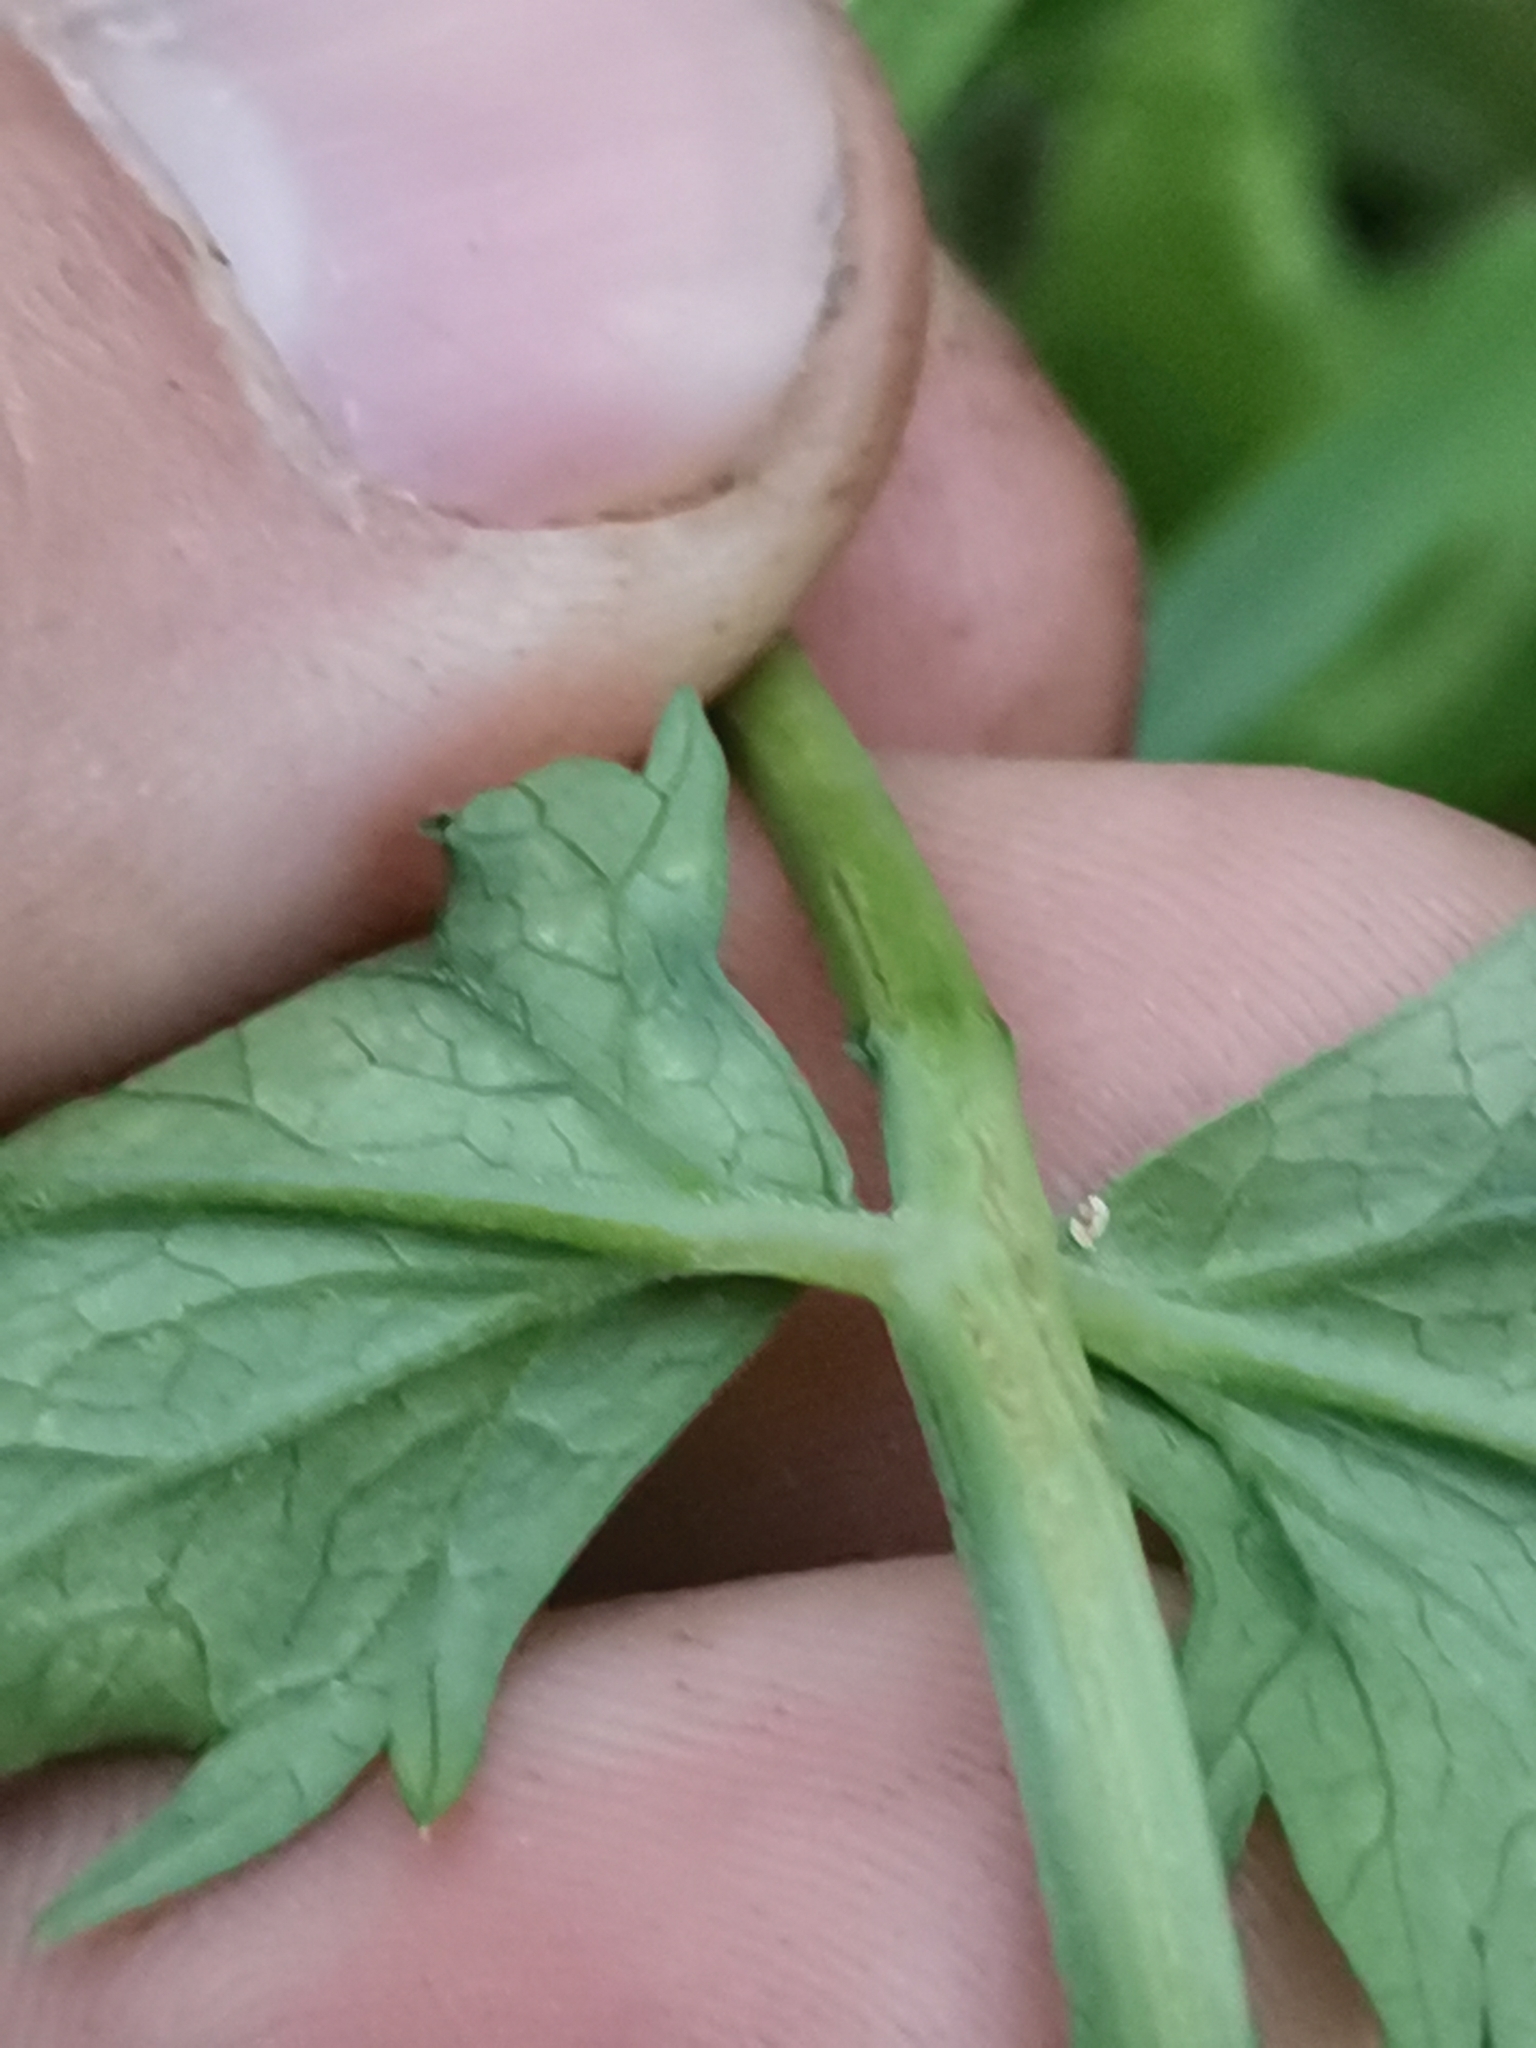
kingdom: Plantae
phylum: Tracheophyta
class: Magnoliopsida
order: Apiales
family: Apiaceae
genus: Pimpinella
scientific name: Pimpinella major
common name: Greater burnet-saxifrage
